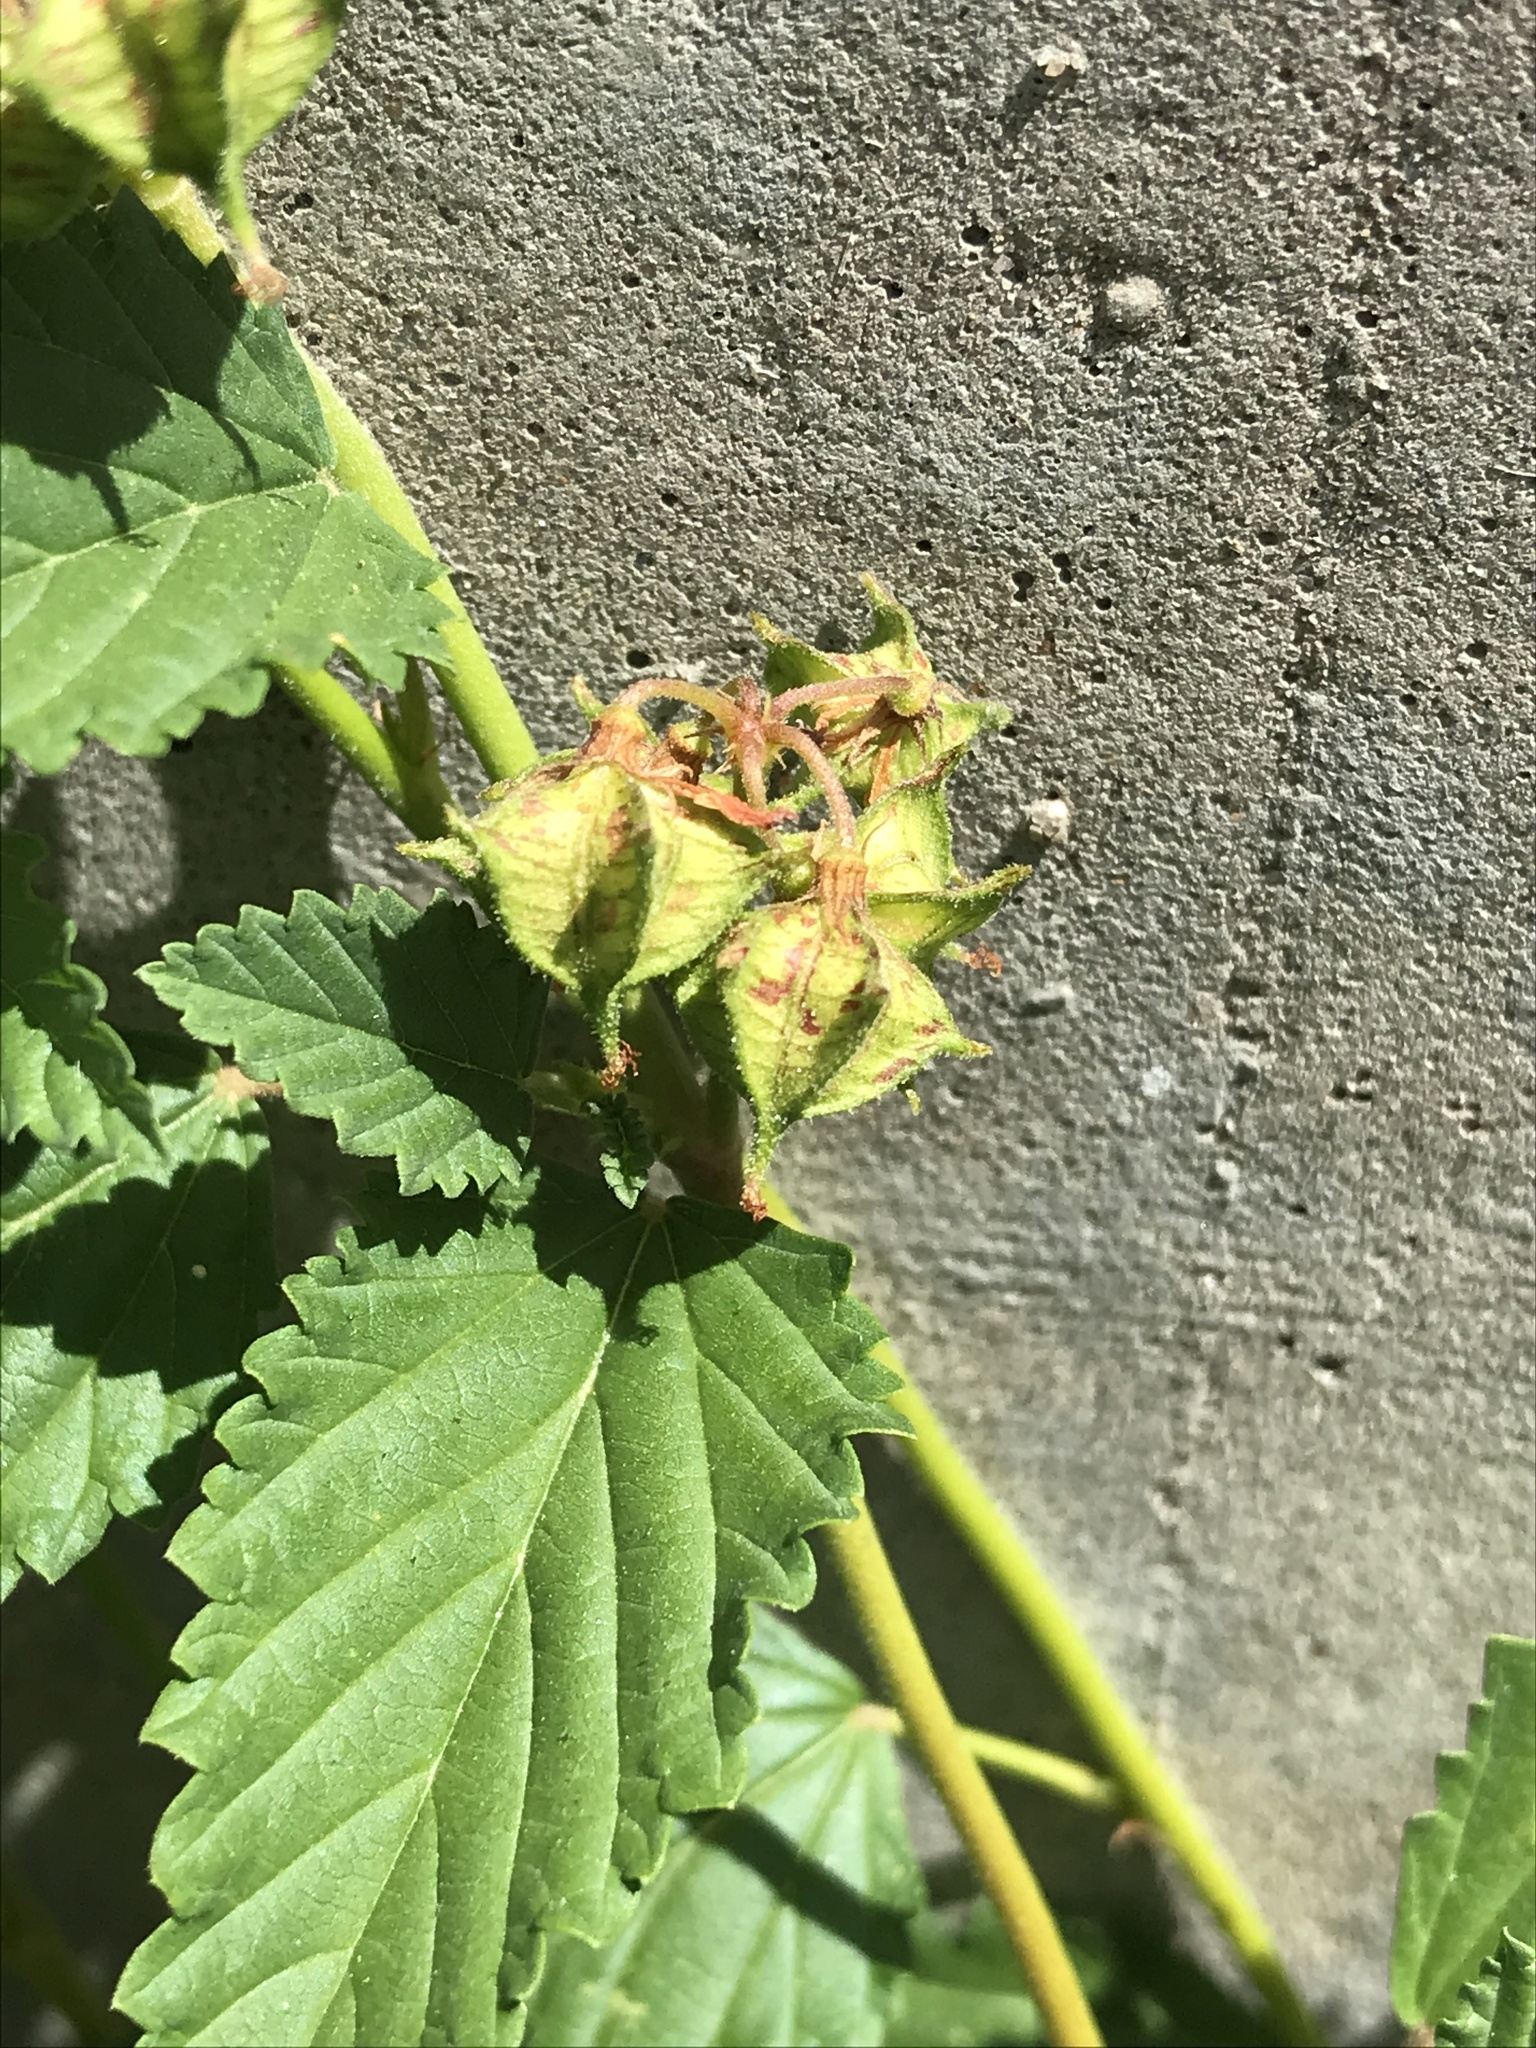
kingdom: Plantae
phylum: Tracheophyta
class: Magnoliopsida
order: Malvales
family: Malvaceae
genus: Melochia
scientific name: Melochia pyramidata
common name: Pyramidflower
